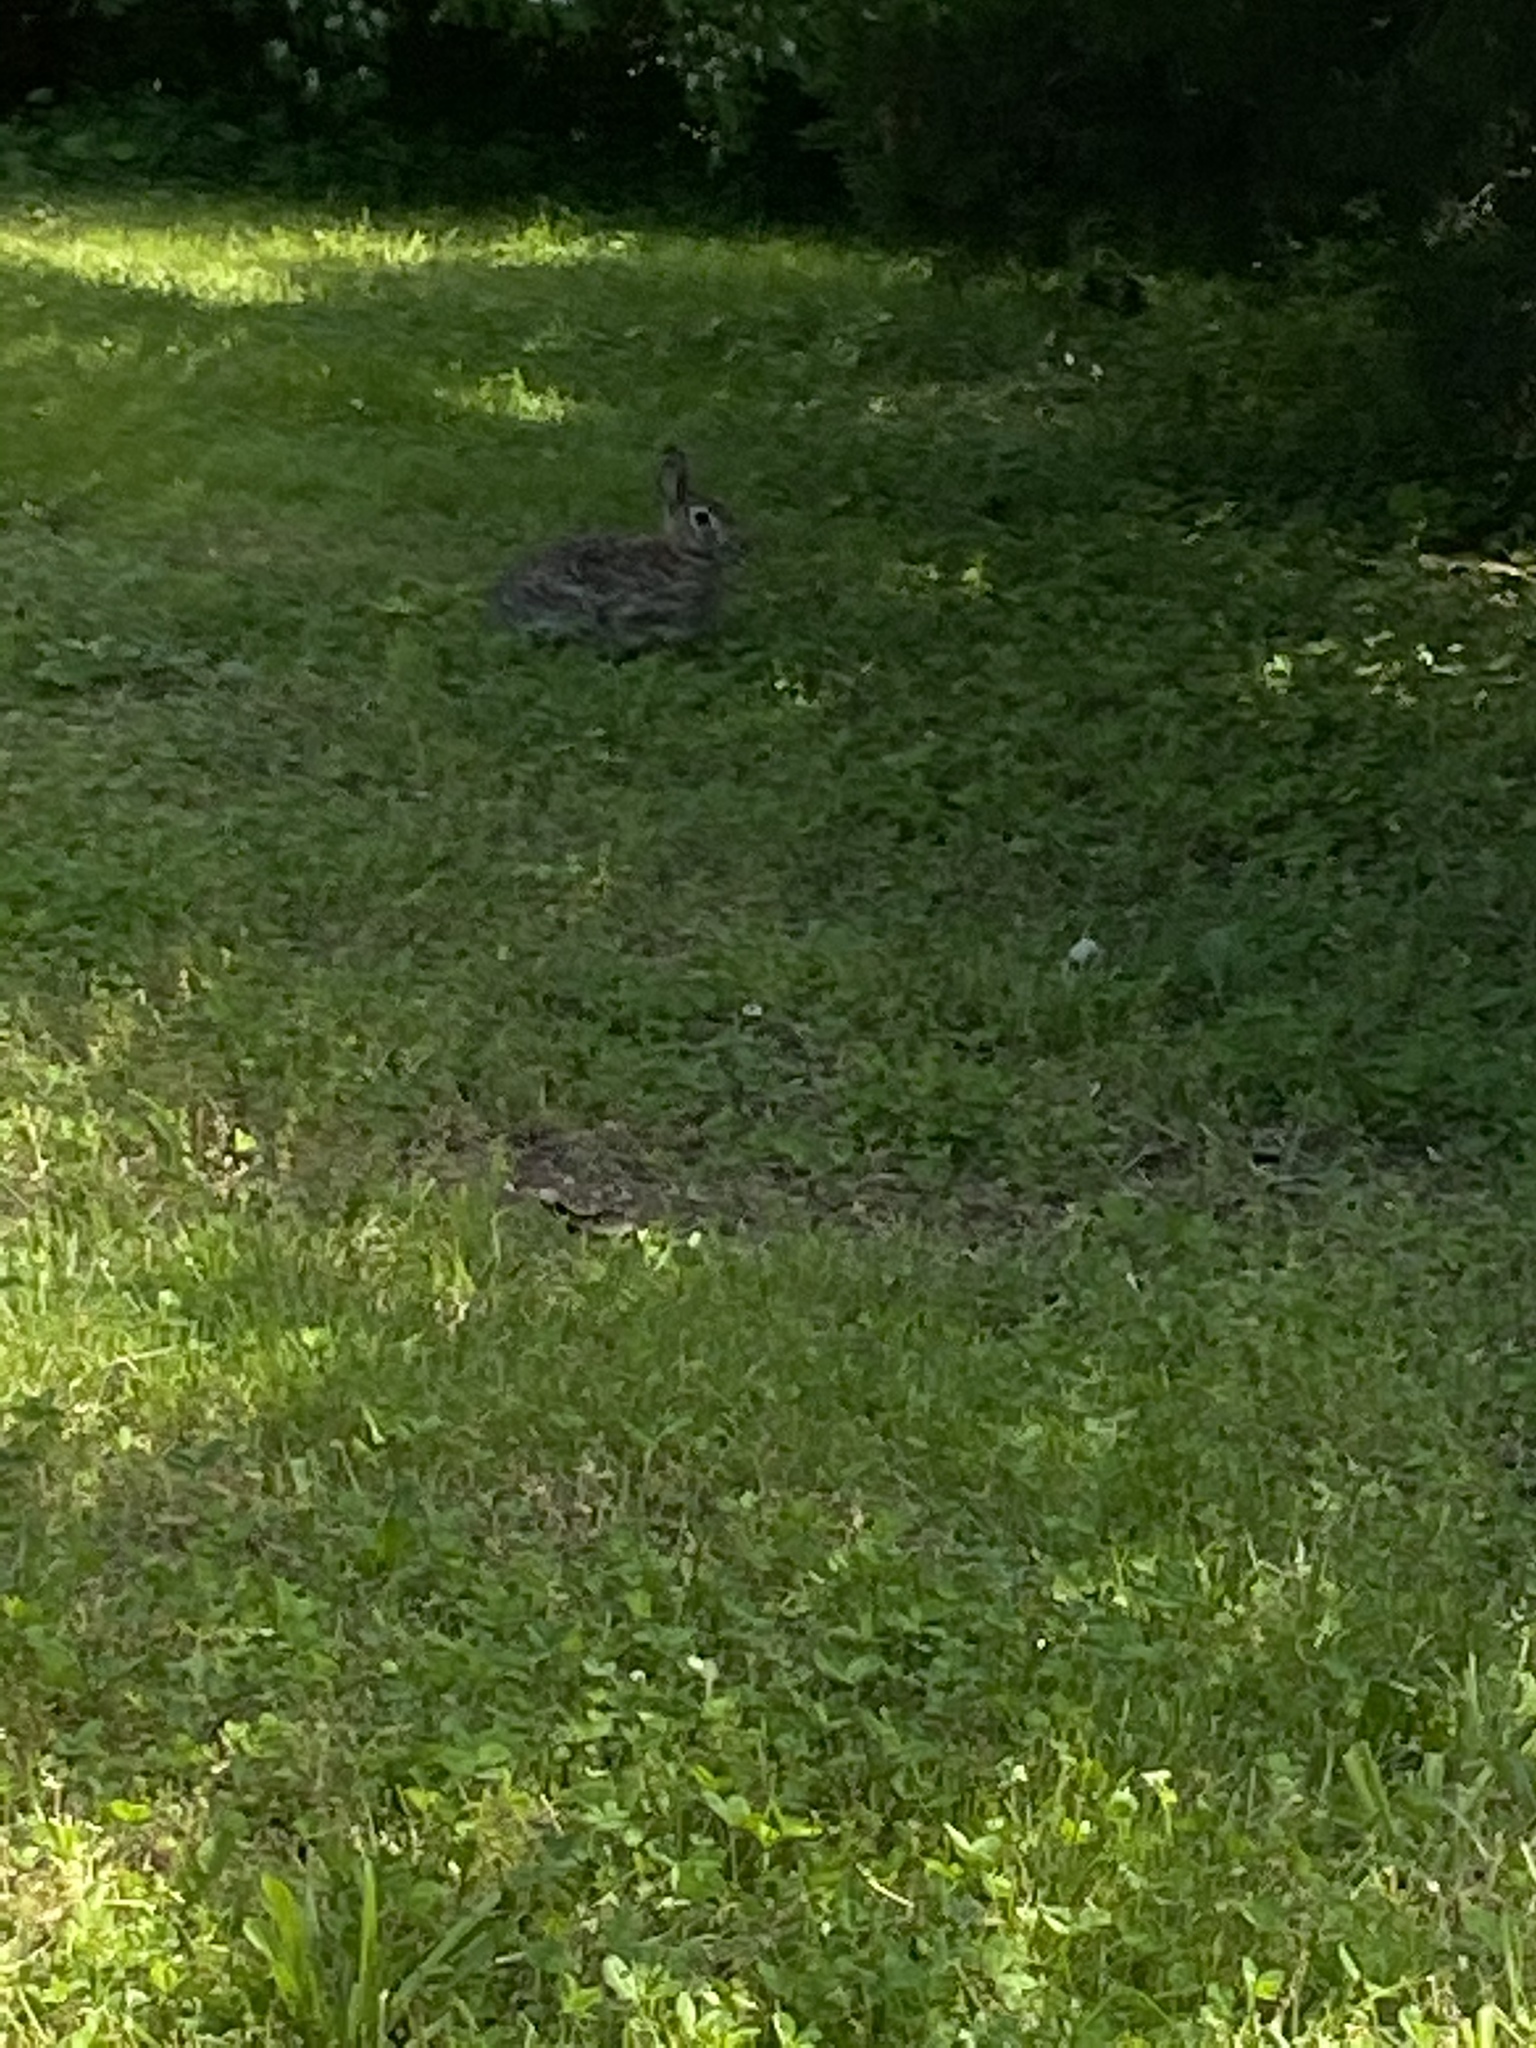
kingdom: Animalia
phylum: Chordata
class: Mammalia
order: Lagomorpha
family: Leporidae
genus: Sylvilagus
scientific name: Sylvilagus floridanus
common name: Eastern cottontail
